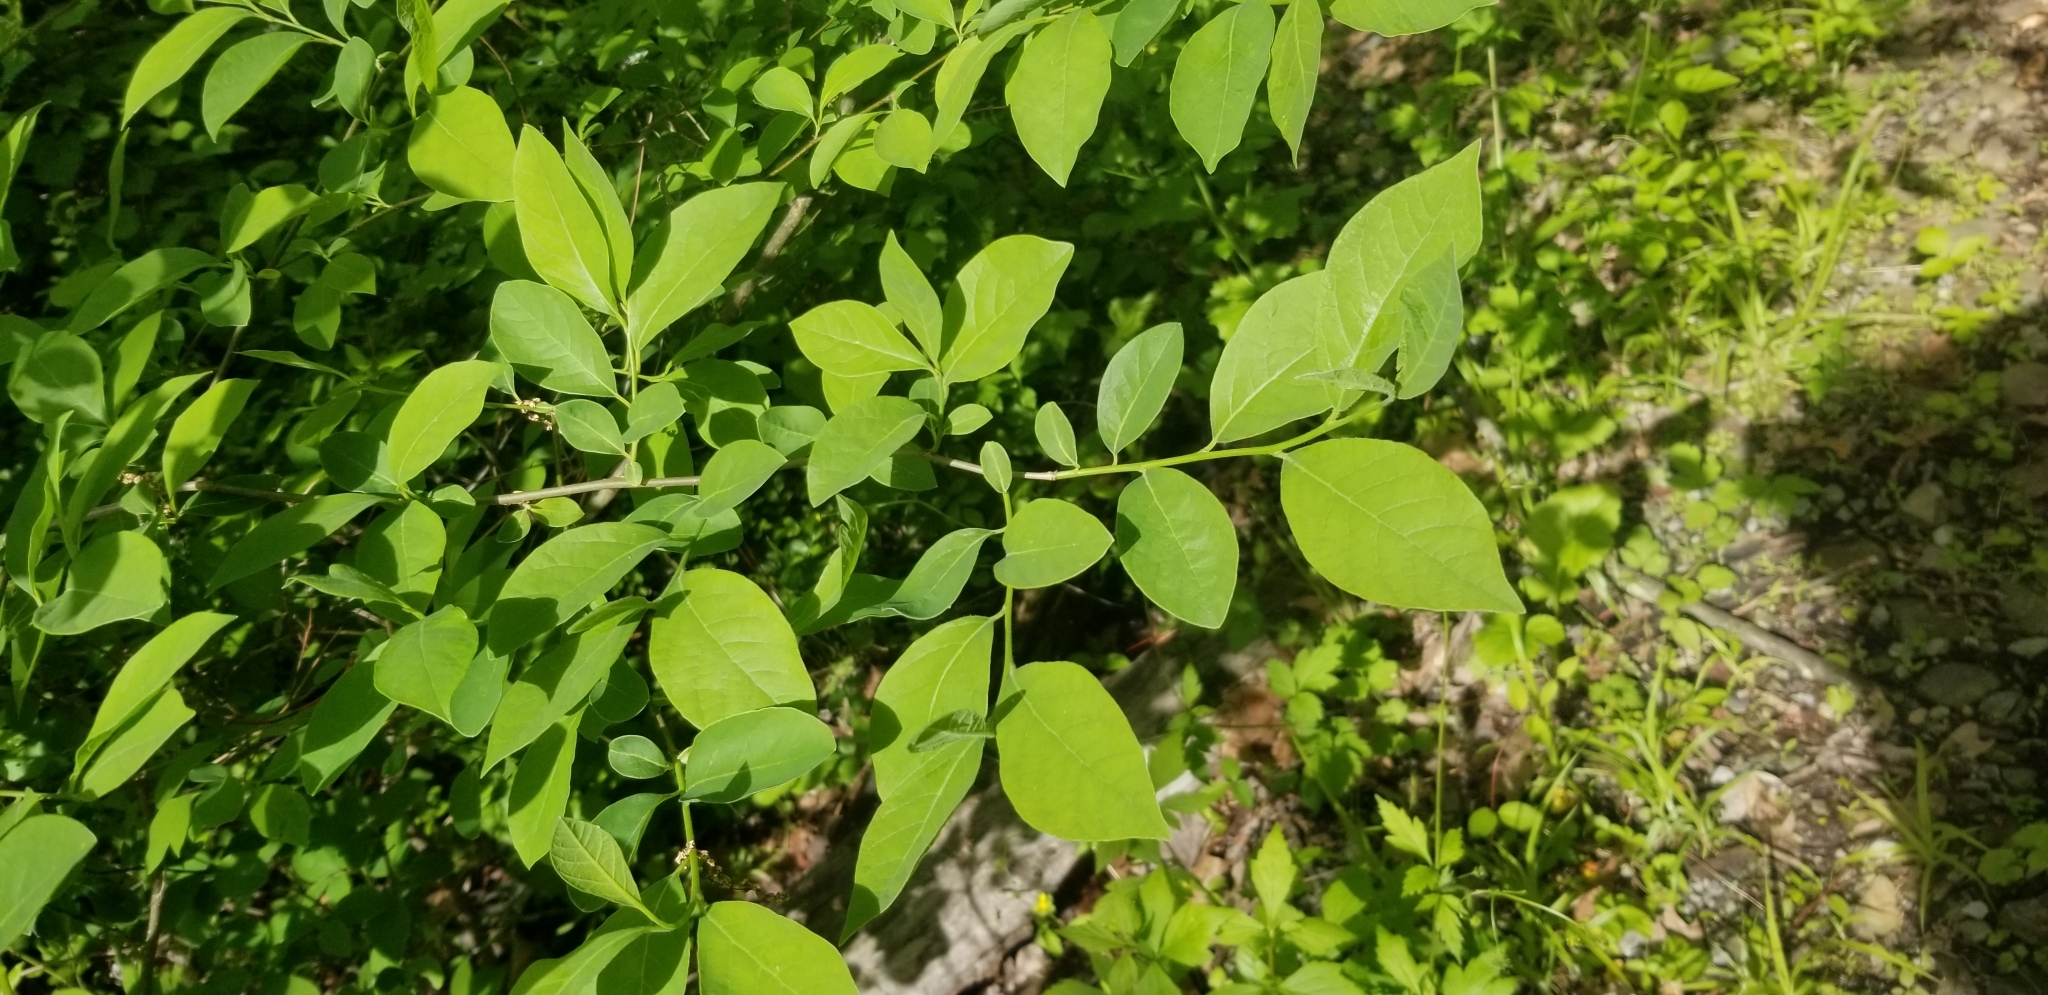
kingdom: Plantae
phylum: Tracheophyta
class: Magnoliopsida
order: Laurales
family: Lauraceae
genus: Lindera
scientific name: Lindera benzoin
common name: Spicebush
